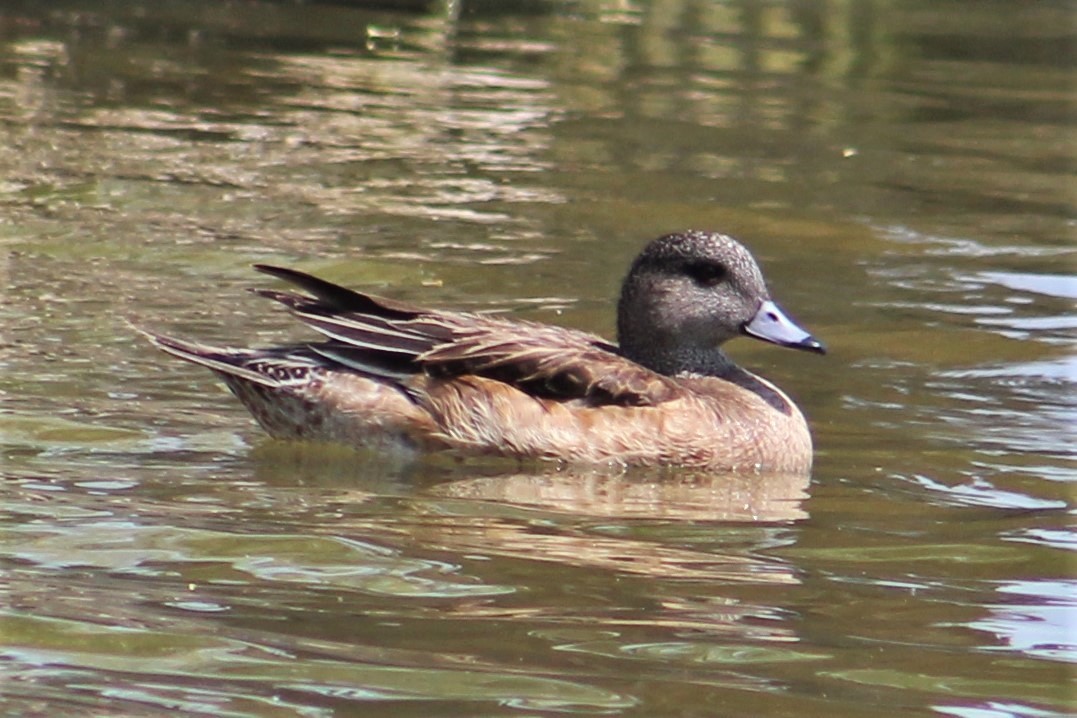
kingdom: Animalia
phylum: Chordata
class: Aves
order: Anseriformes
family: Anatidae
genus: Mareca
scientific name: Mareca americana
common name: American wigeon
